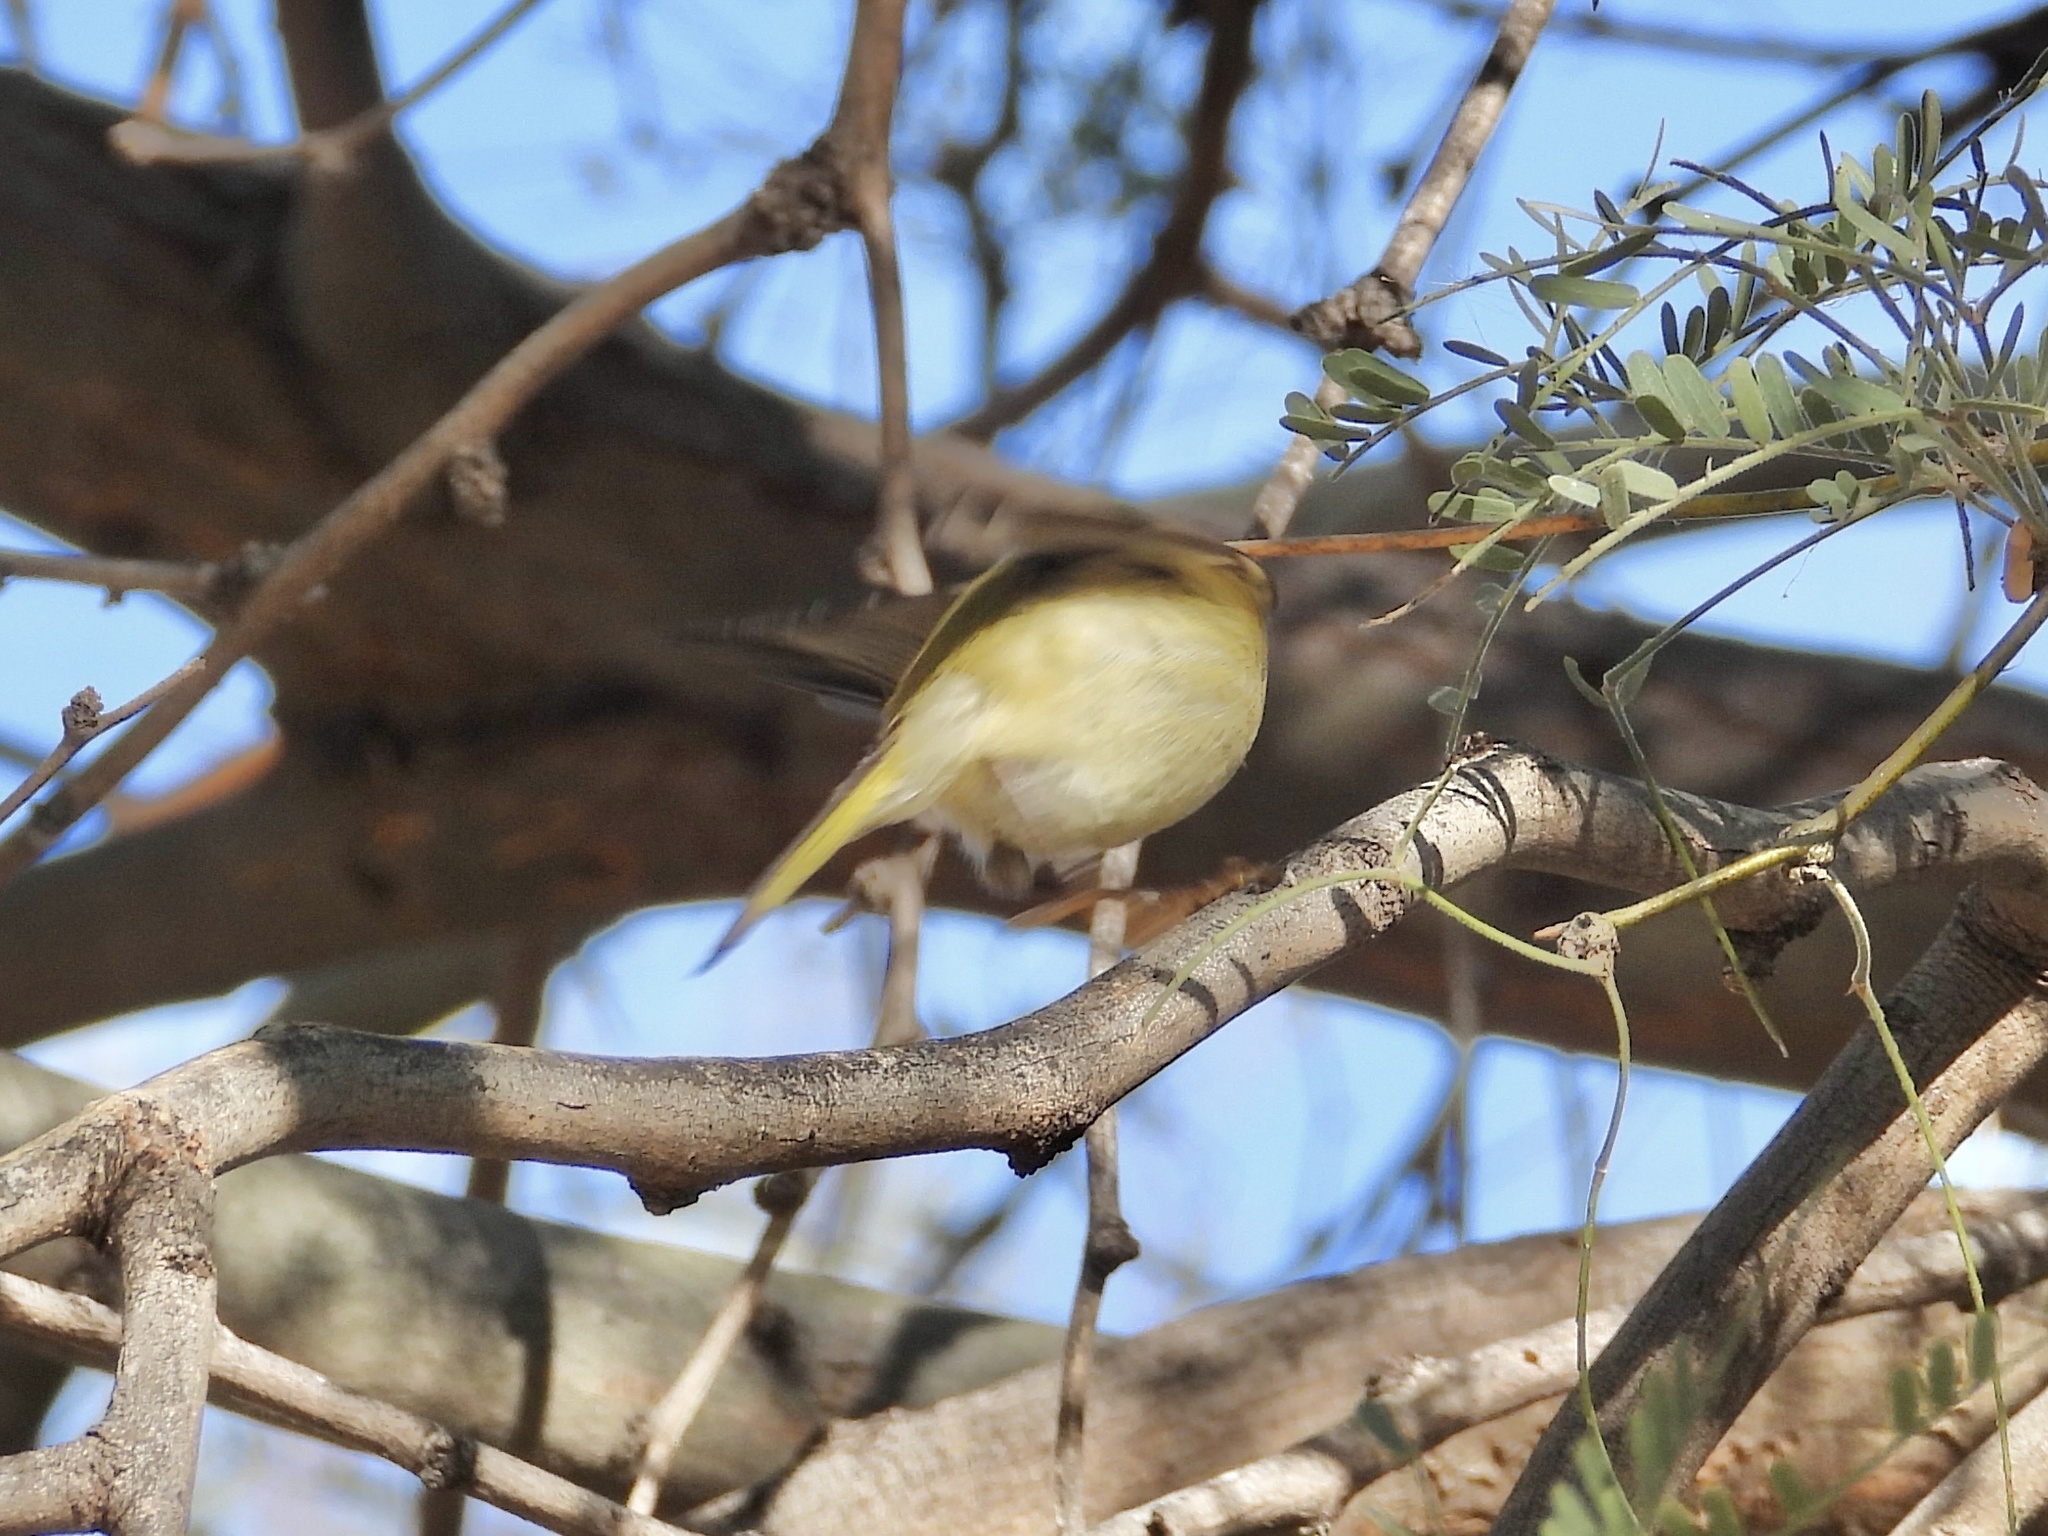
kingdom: Animalia
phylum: Chordata
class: Aves
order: Passeriformes
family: Regulidae
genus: Regulus
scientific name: Regulus calendula
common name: Ruby-crowned kinglet
